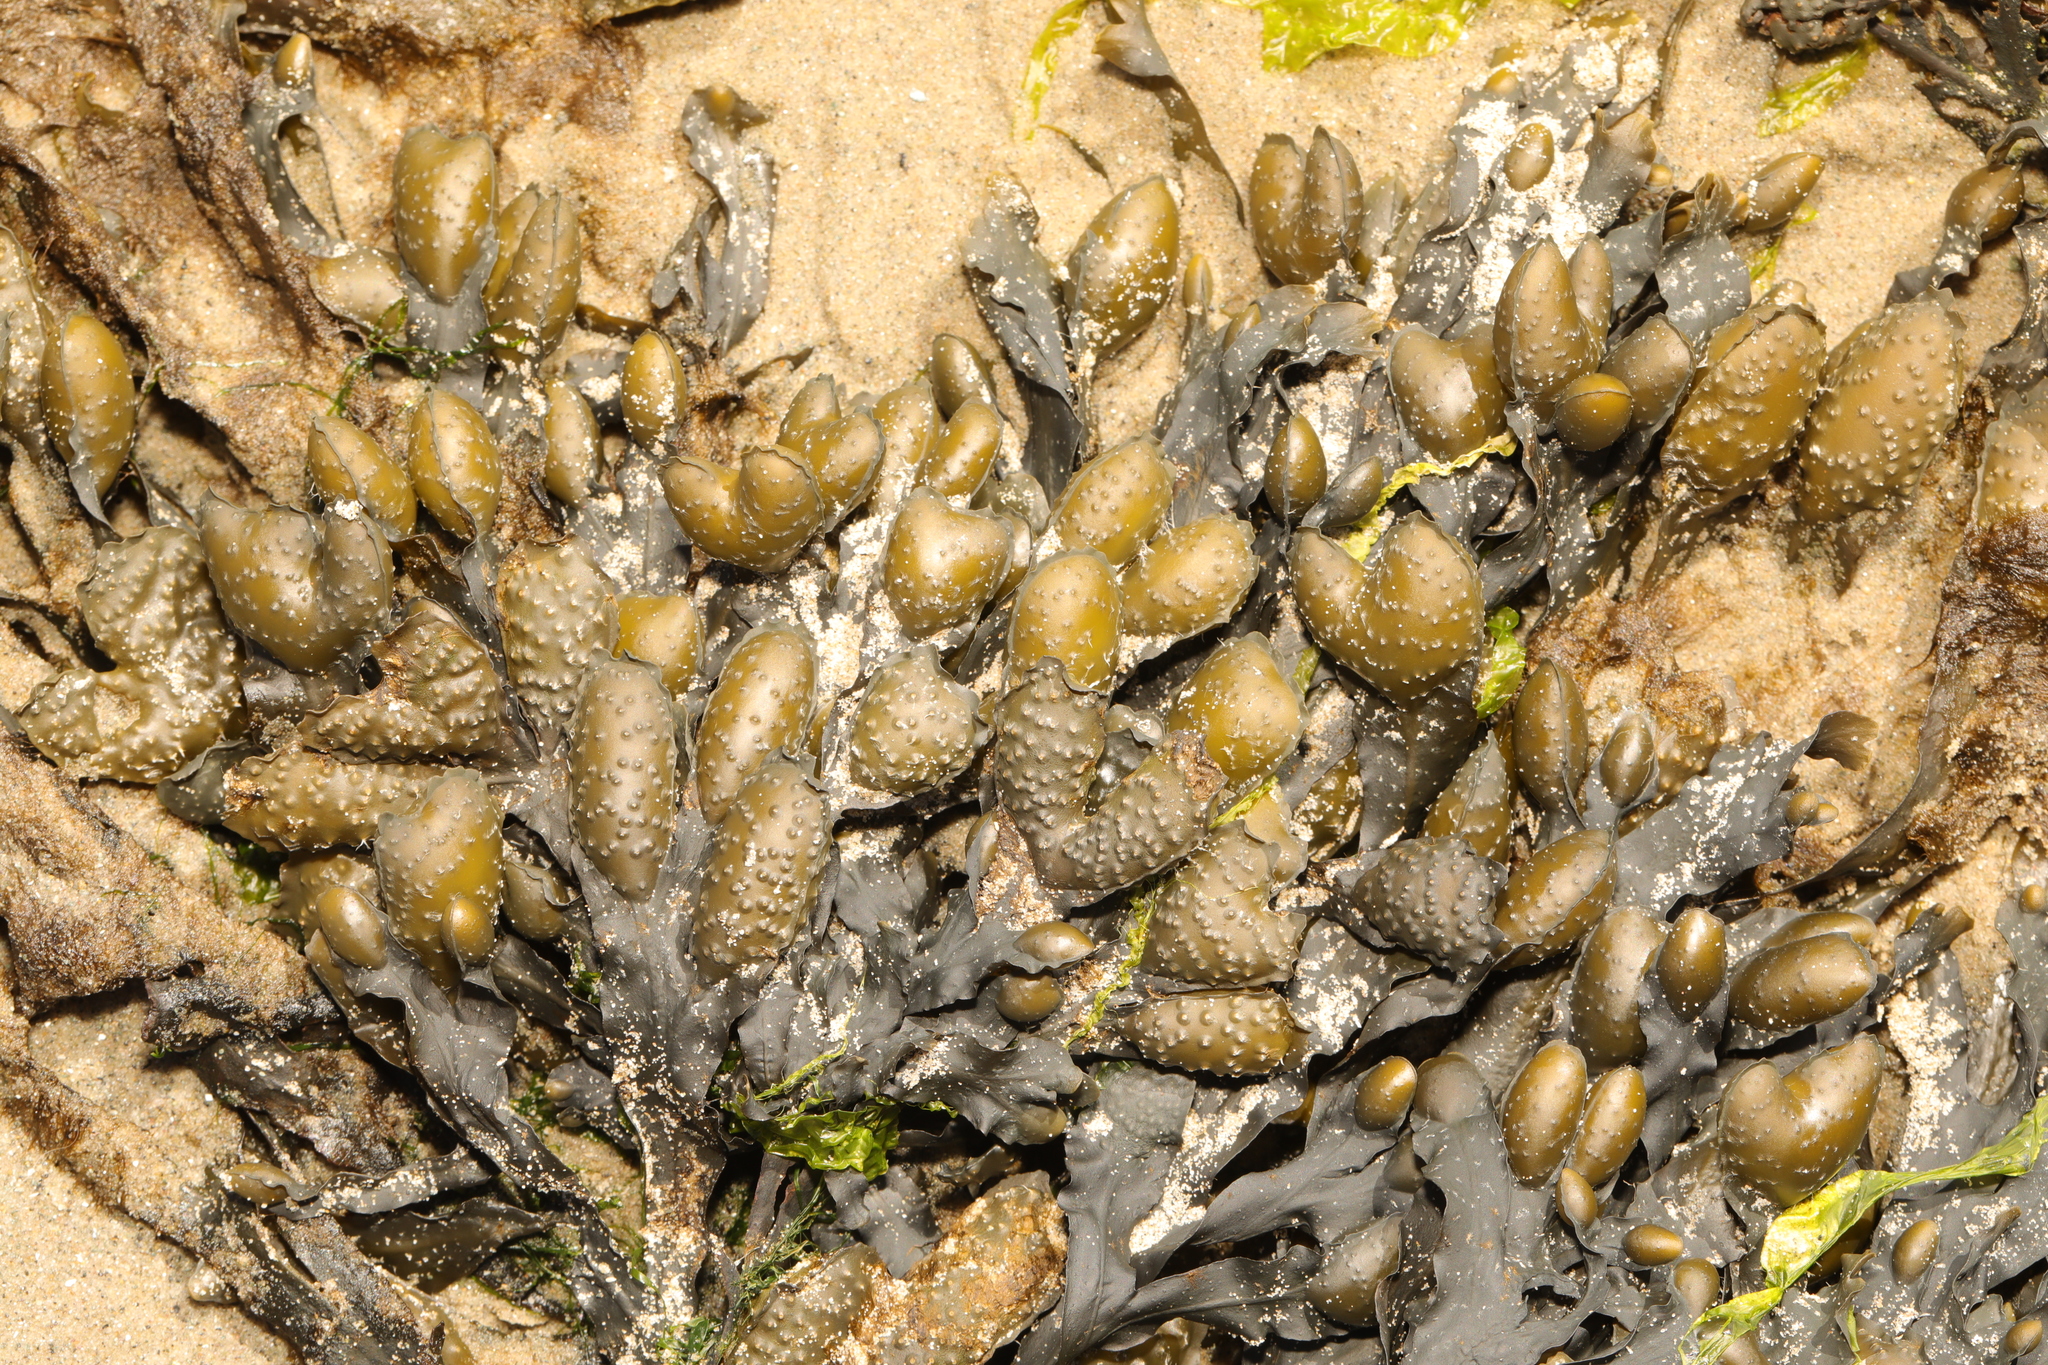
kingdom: Chromista
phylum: Ochrophyta
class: Phaeophyceae
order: Fucales
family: Fucaceae
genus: Fucus
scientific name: Fucus spiralis
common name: Spiral wrack
